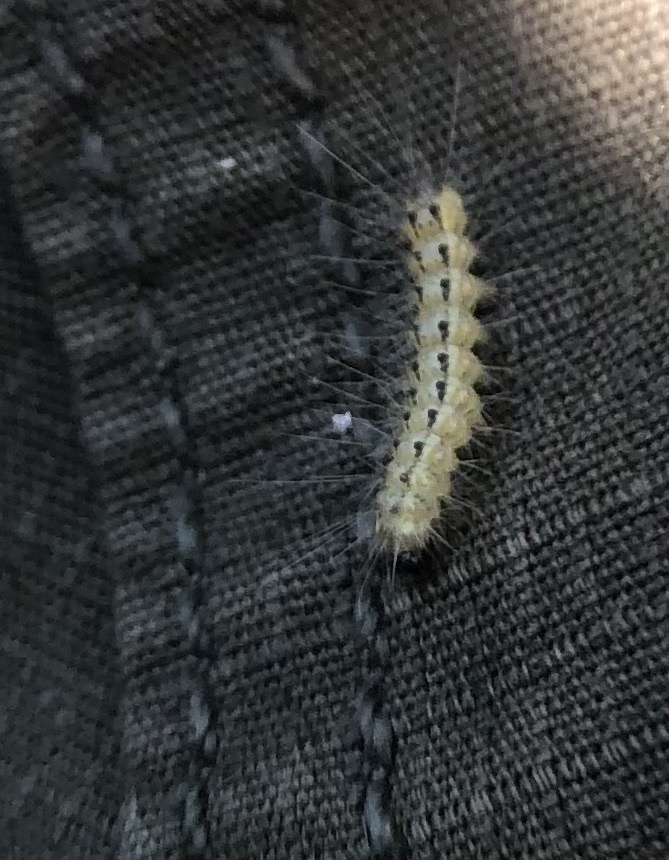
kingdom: Animalia
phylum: Arthropoda
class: Insecta
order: Lepidoptera
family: Erebidae
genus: Hyphantria
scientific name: Hyphantria cunea
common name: American white moth
